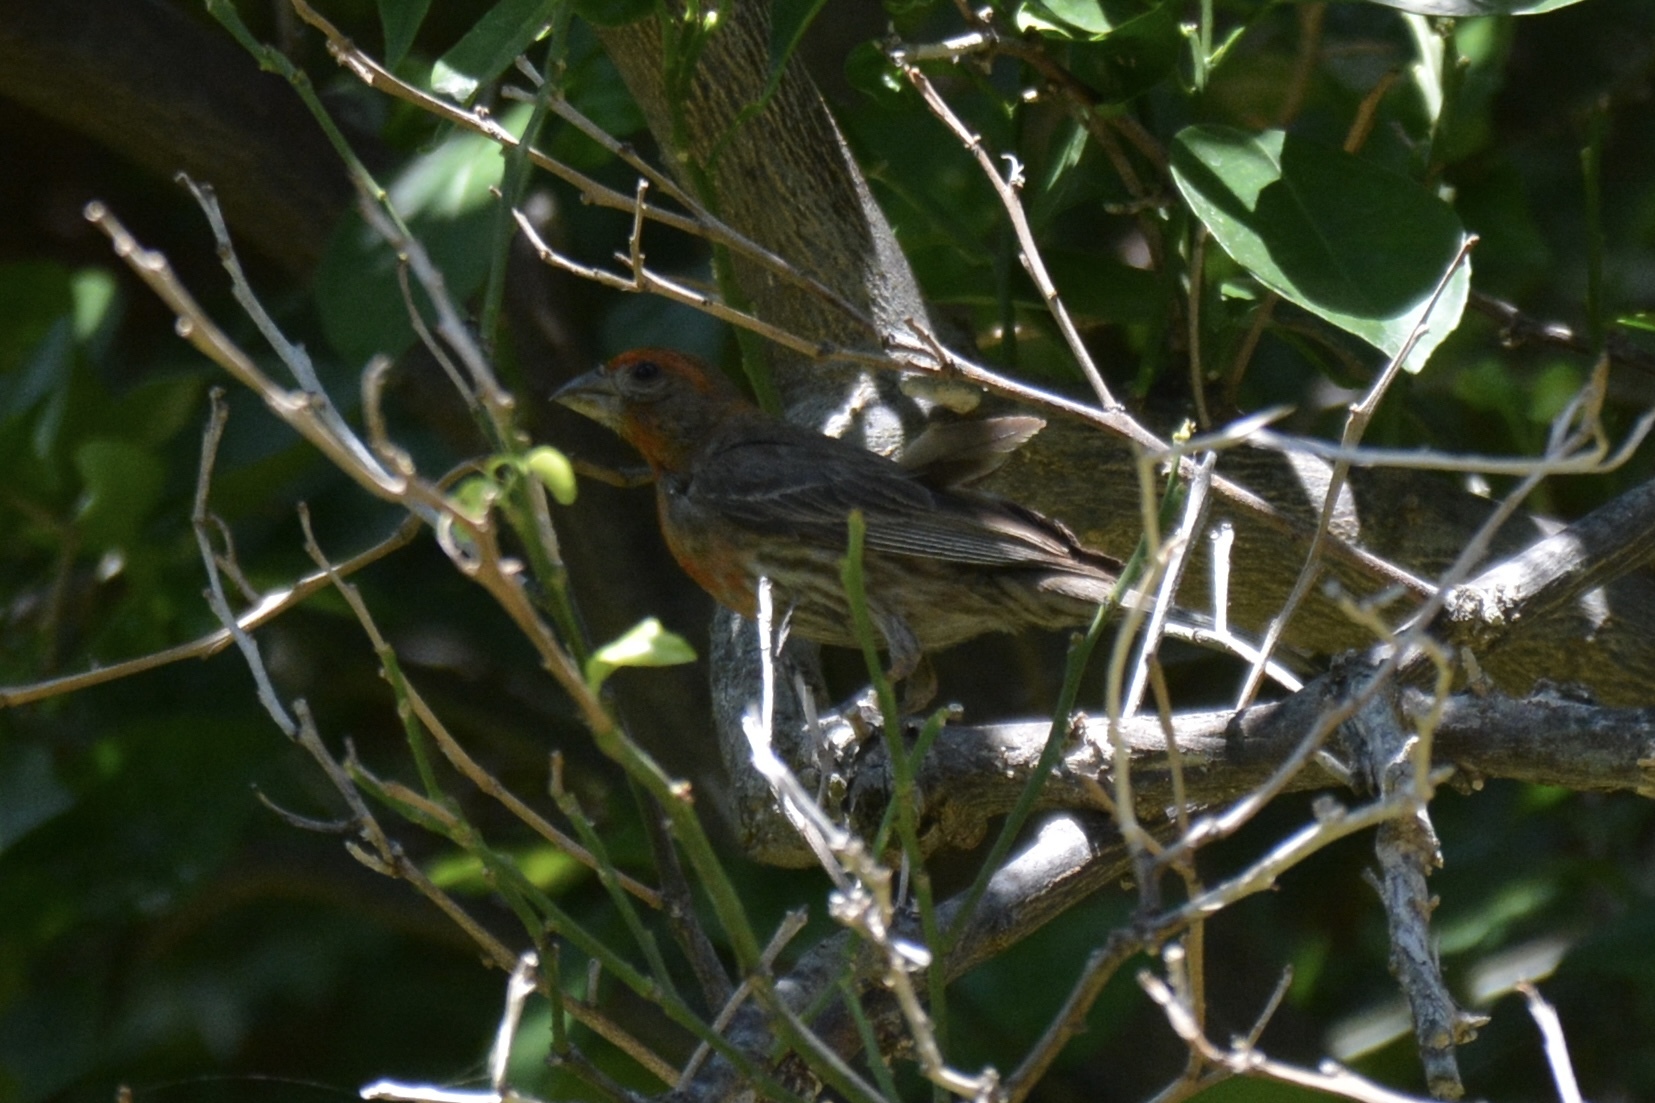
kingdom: Animalia
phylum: Chordata
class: Aves
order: Passeriformes
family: Fringillidae
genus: Haemorhous
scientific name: Haemorhous mexicanus
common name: House finch
